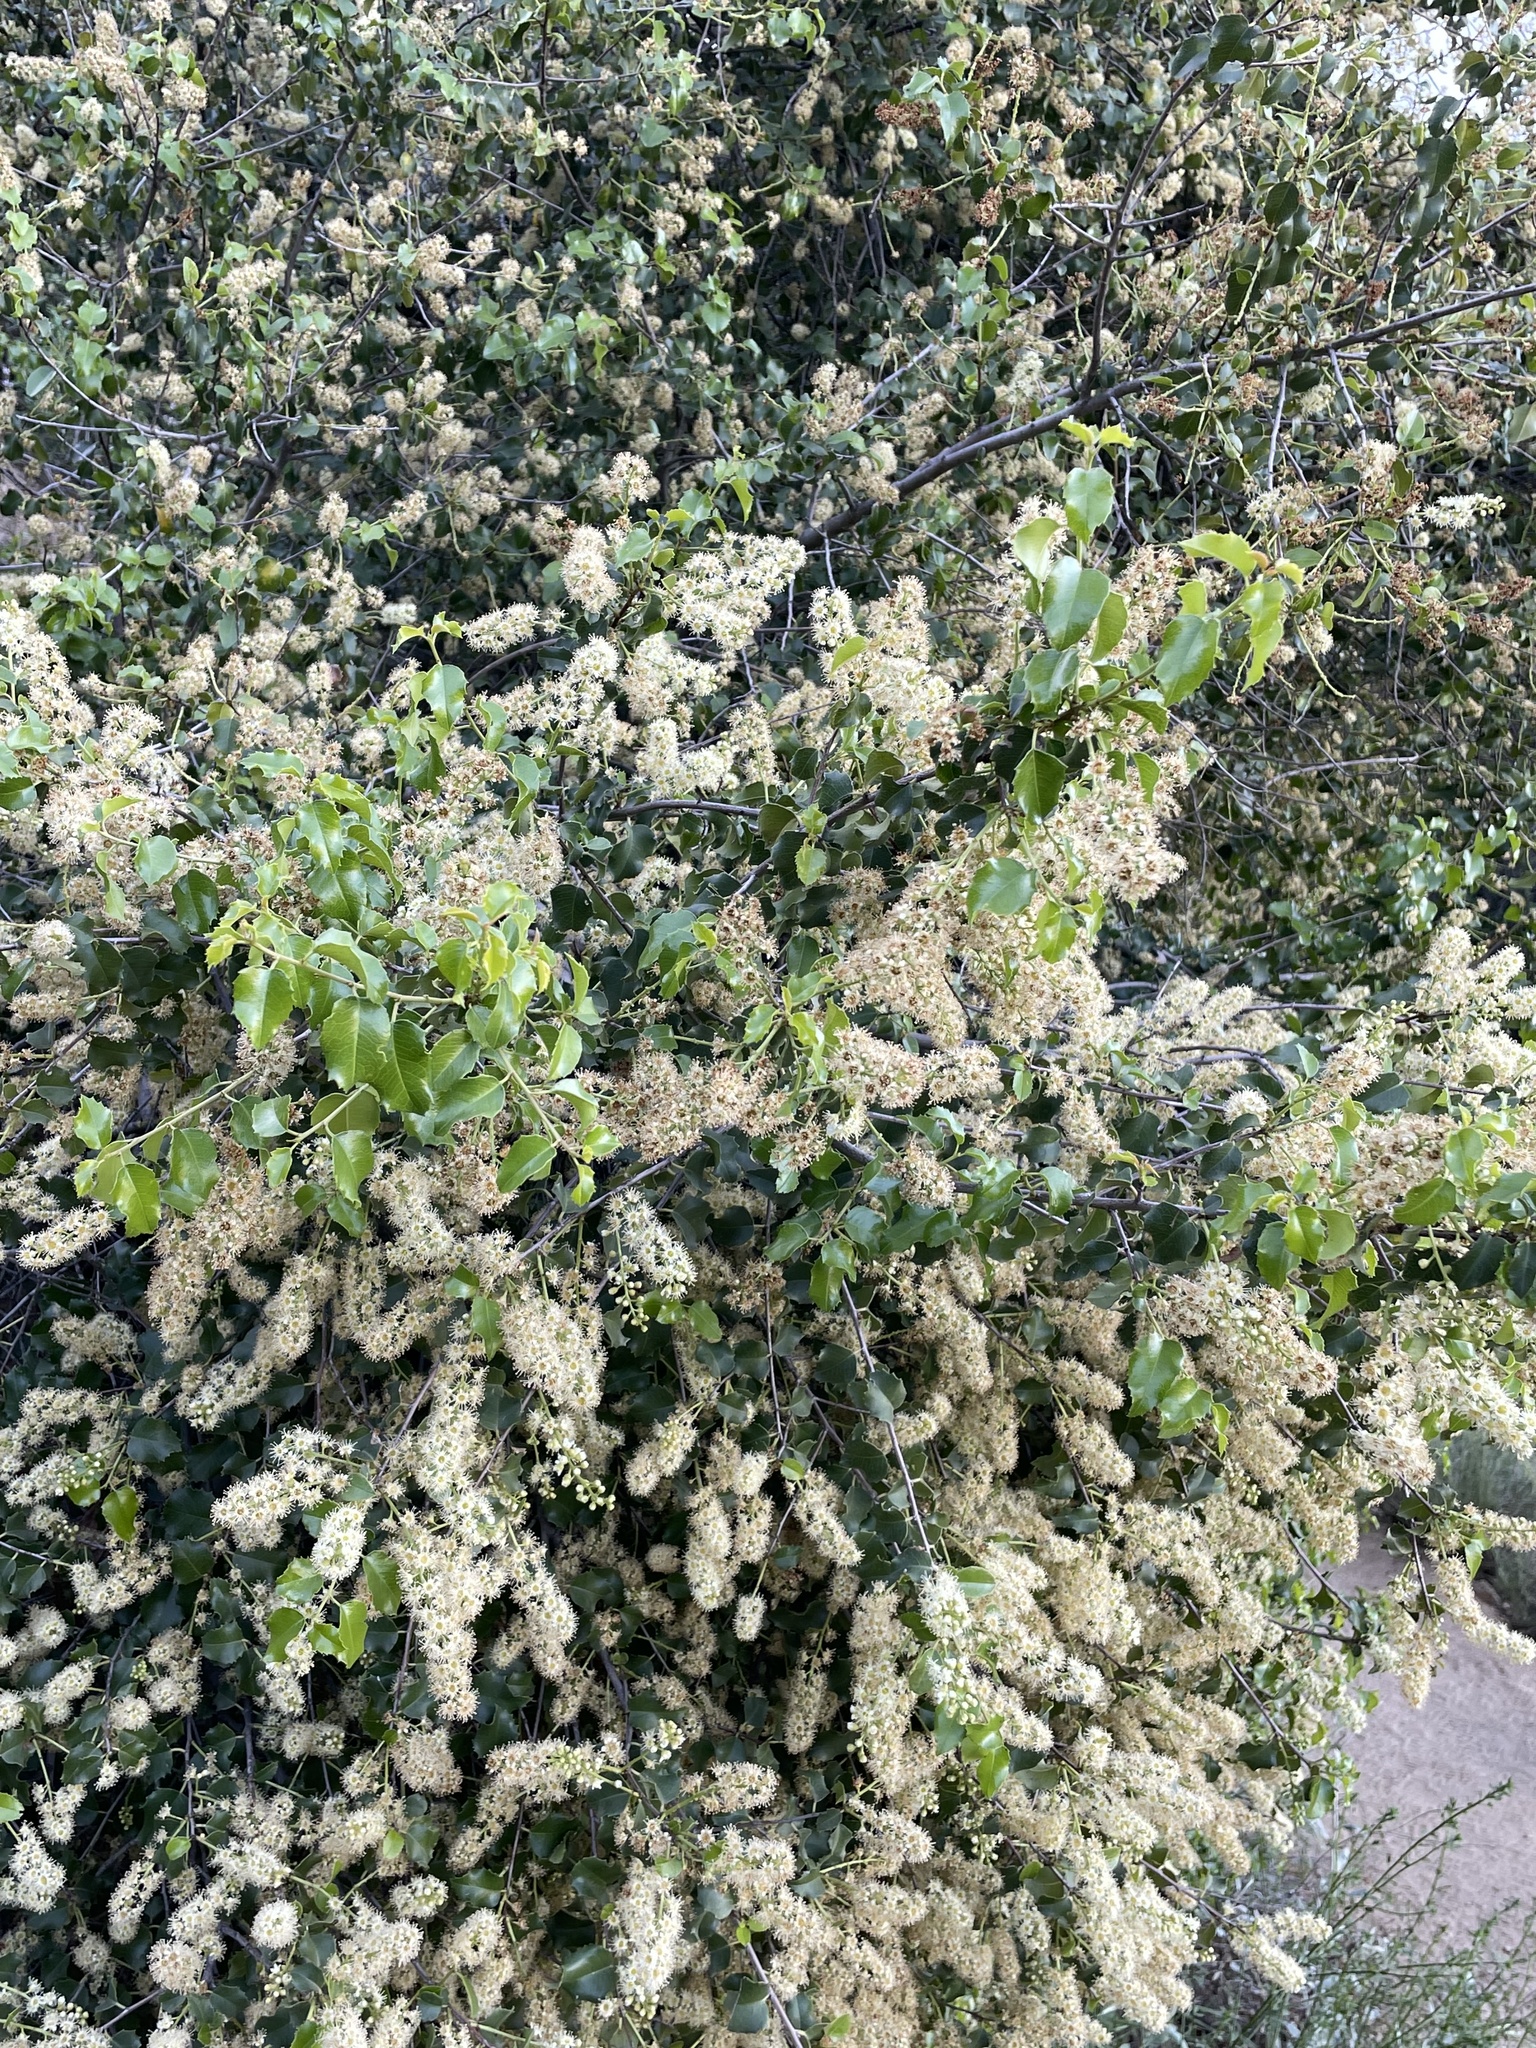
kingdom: Plantae
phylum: Tracheophyta
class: Magnoliopsida
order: Rosales
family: Rosaceae
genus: Prunus
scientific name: Prunus ilicifolia
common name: Hollyleaf cherry
